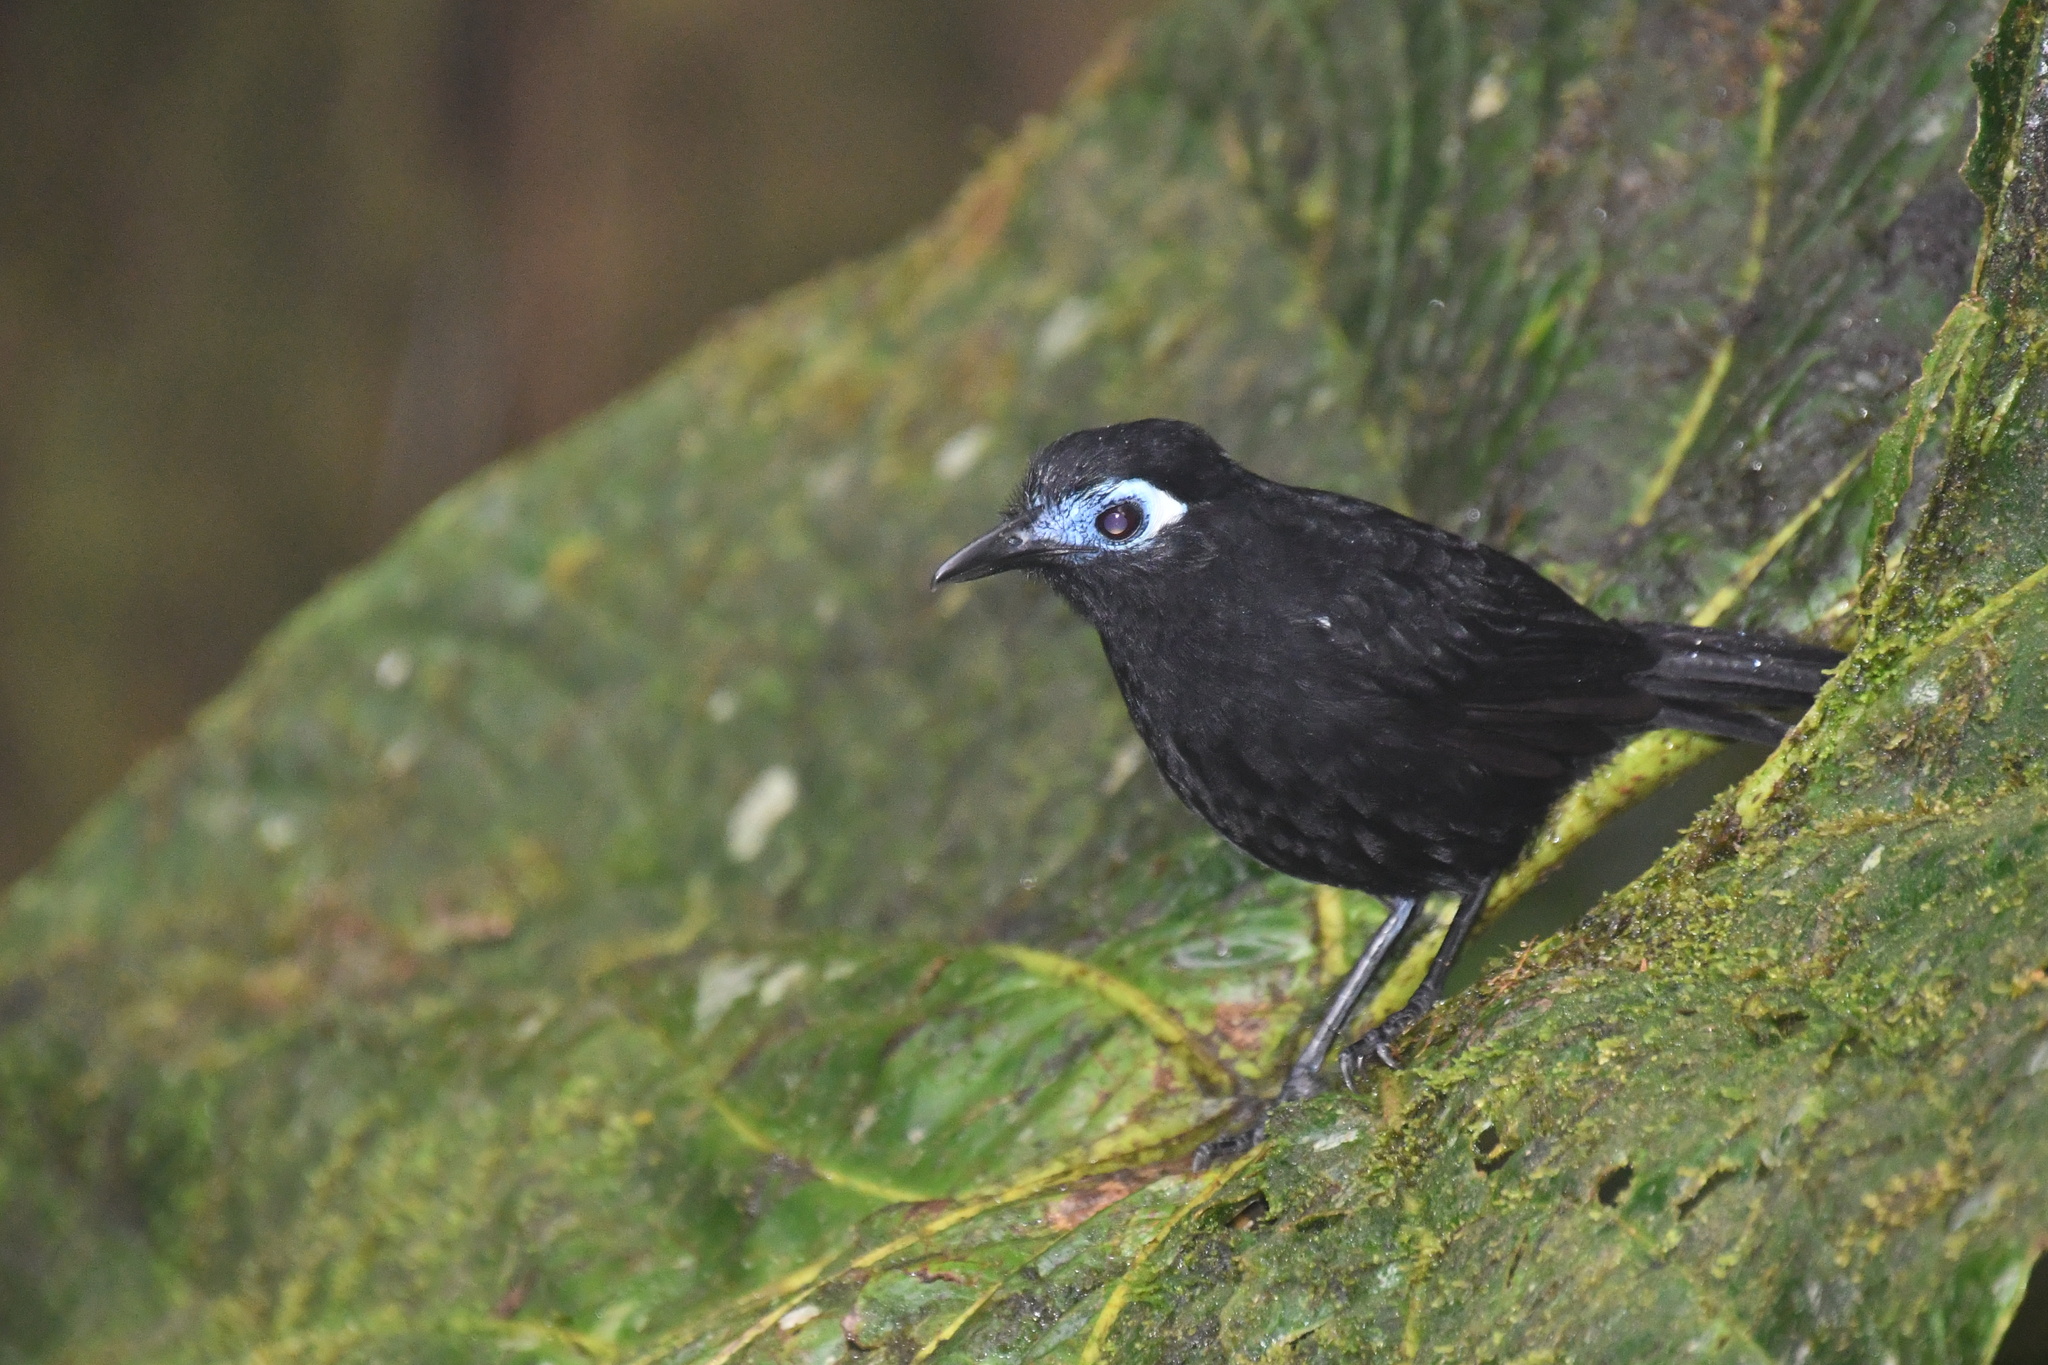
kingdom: Animalia
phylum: Chordata
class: Aves
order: Passeriformes
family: Thamnophilidae
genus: Hafferia
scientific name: Hafferia zeledoni
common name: Zeledon's antbird
